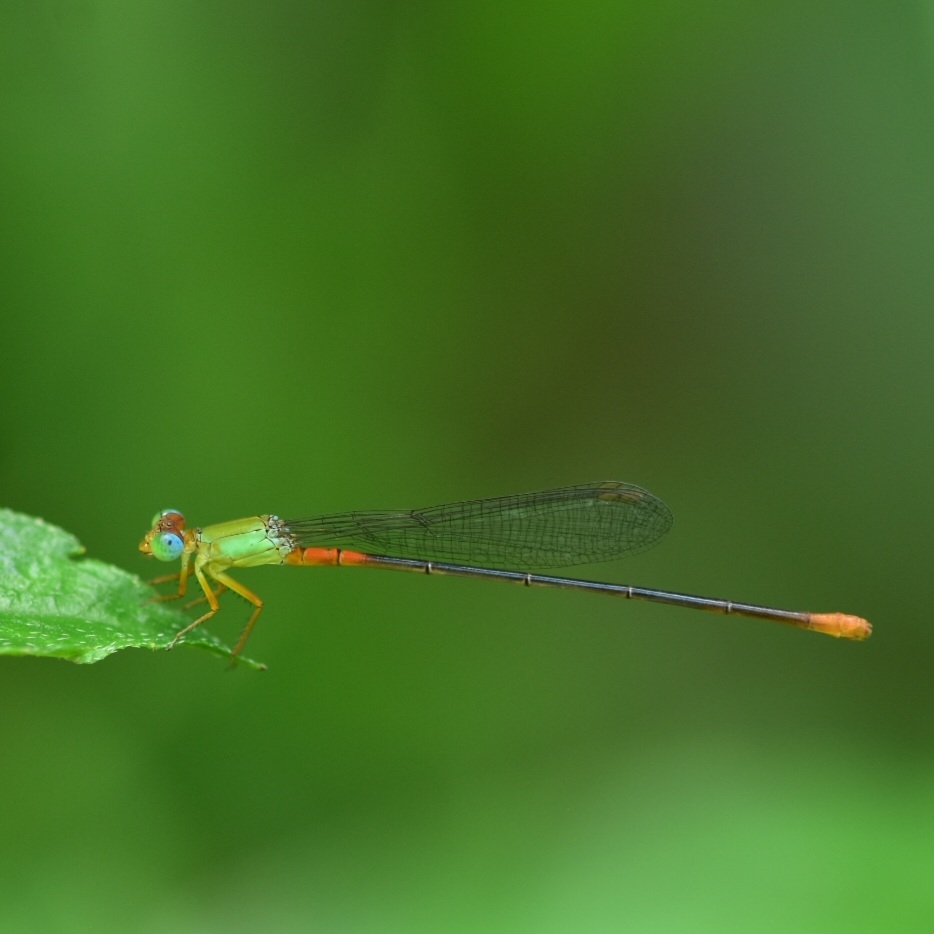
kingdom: Animalia
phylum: Arthropoda
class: Insecta
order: Odonata
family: Coenagrionidae
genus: Ceriagrion
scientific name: Ceriagrion cerinorubellum
